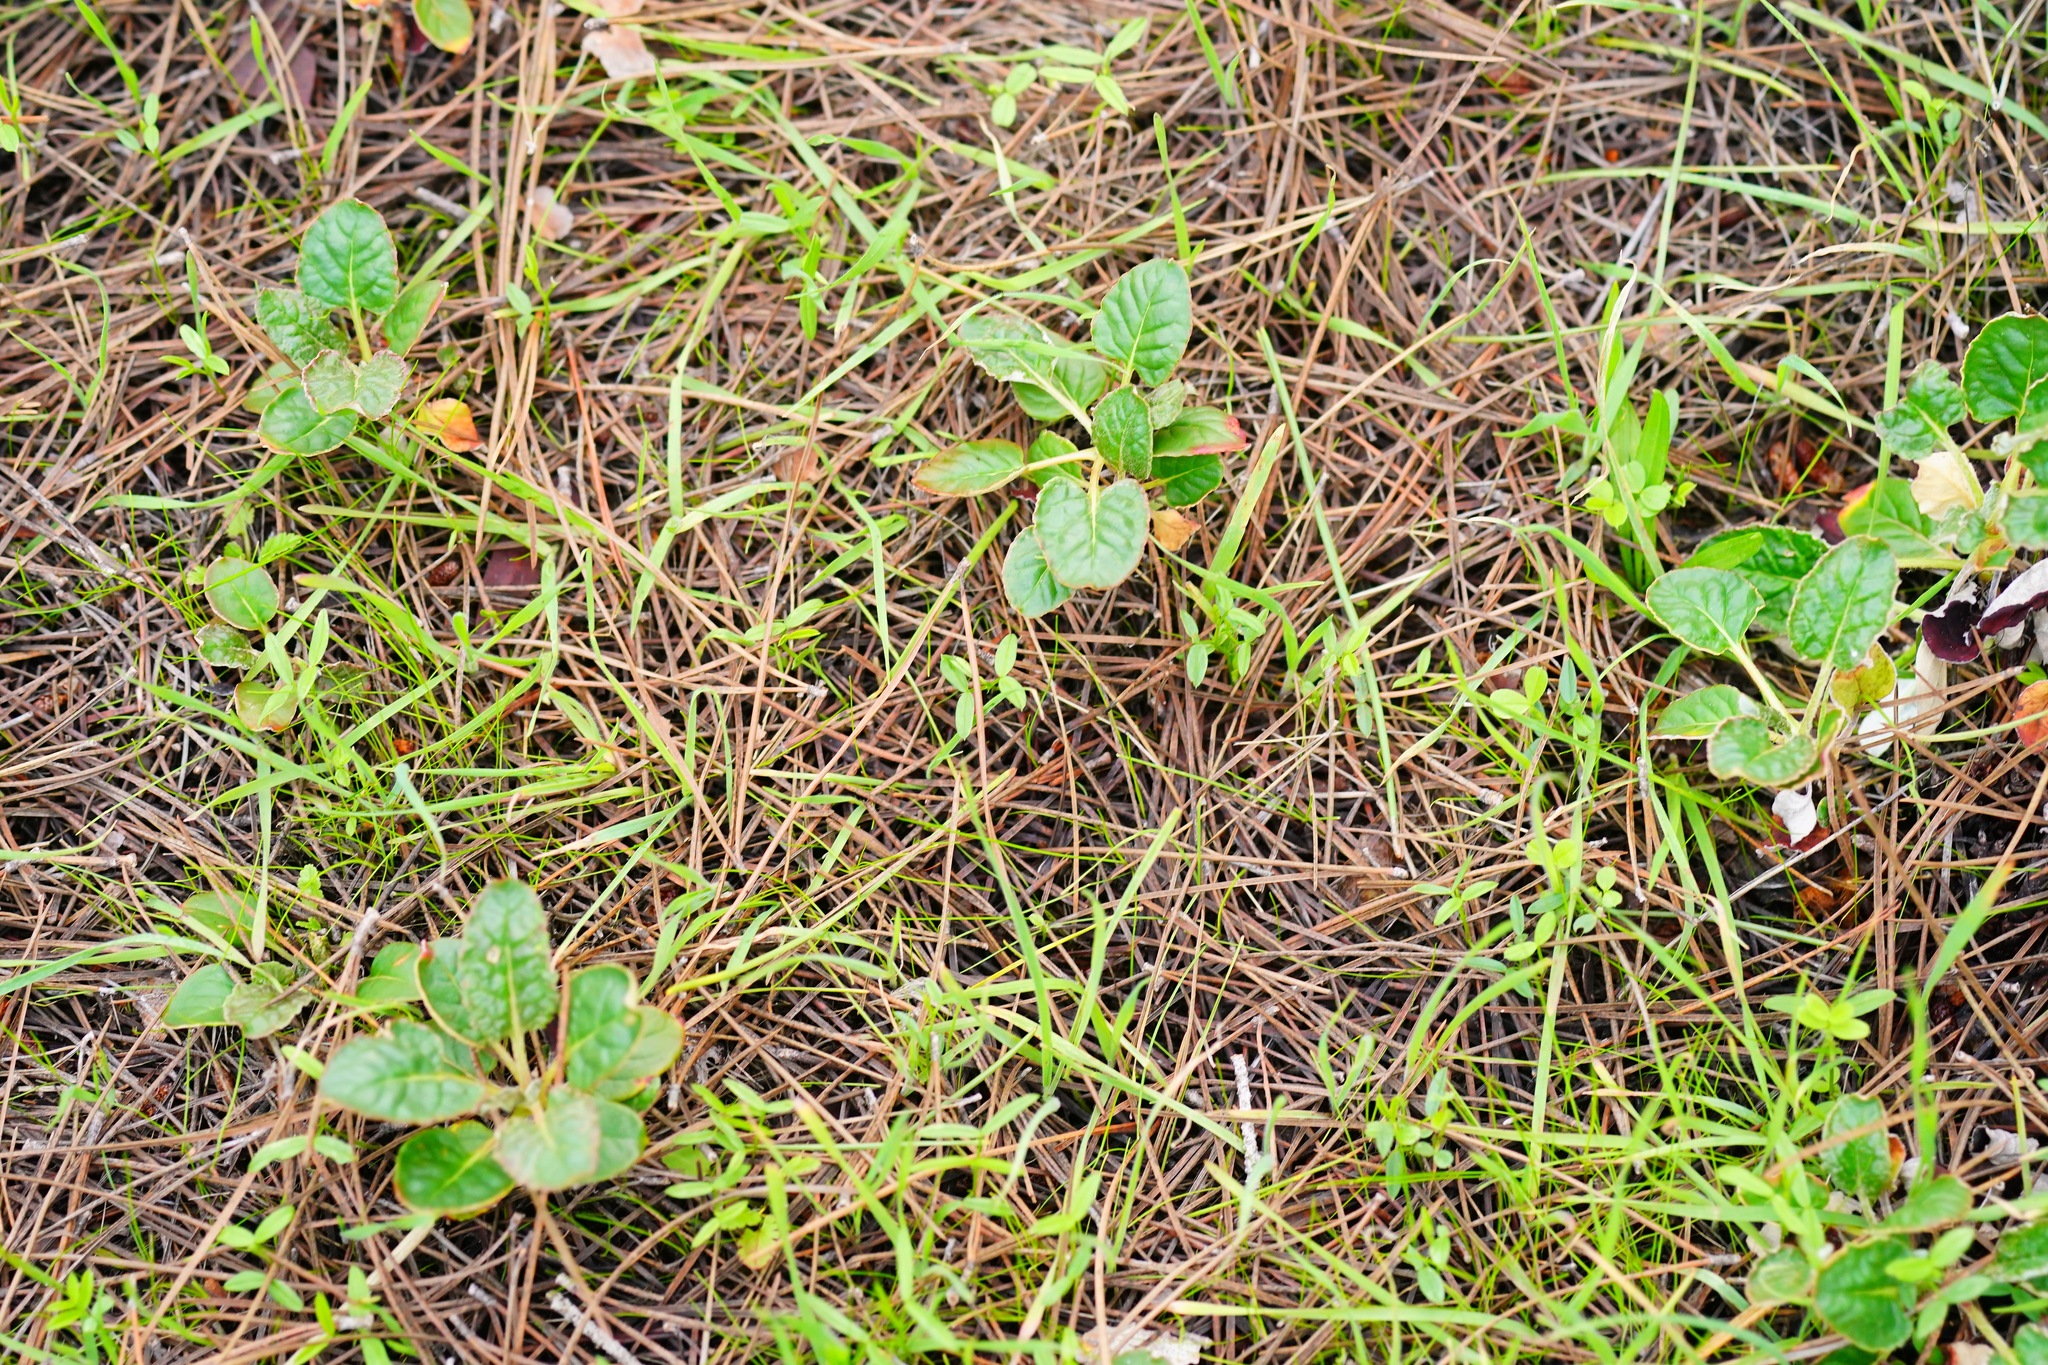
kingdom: Plantae
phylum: Tracheophyta
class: Magnoliopsida
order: Caryophyllales
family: Polygonaceae
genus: Eriogonum
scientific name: Eriogonum nudum
